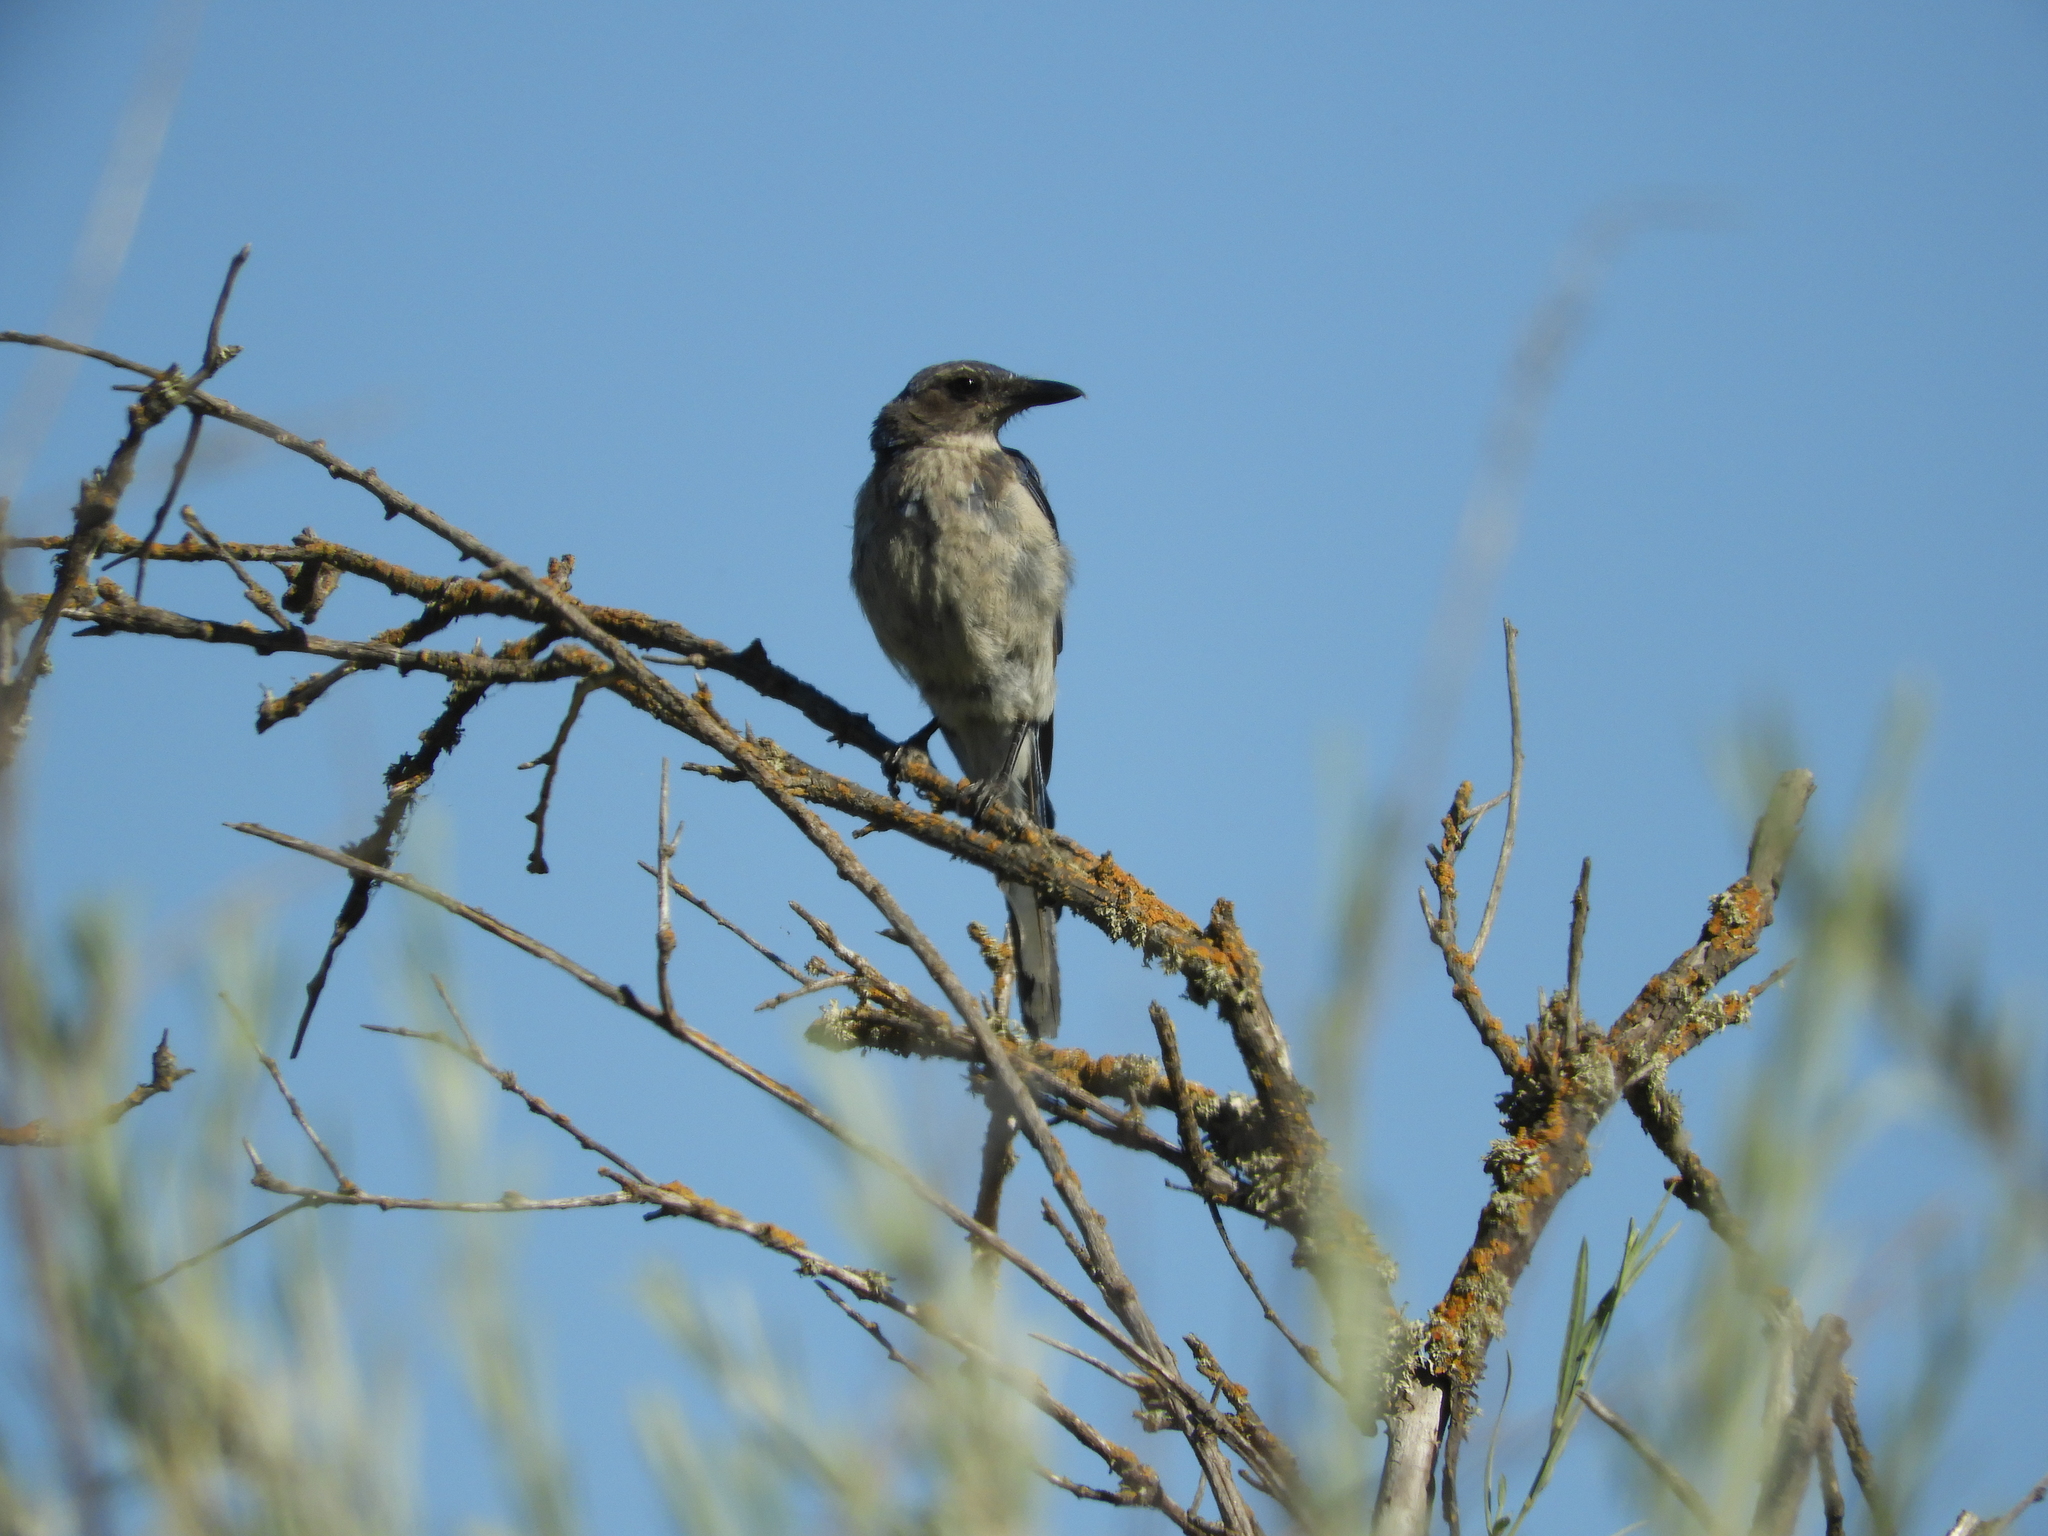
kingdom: Animalia
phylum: Chordata
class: Aves
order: Passeriformes
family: Corvidae
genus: Aphelocoma
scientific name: Aphelocoma californica
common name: California scrub-jay
